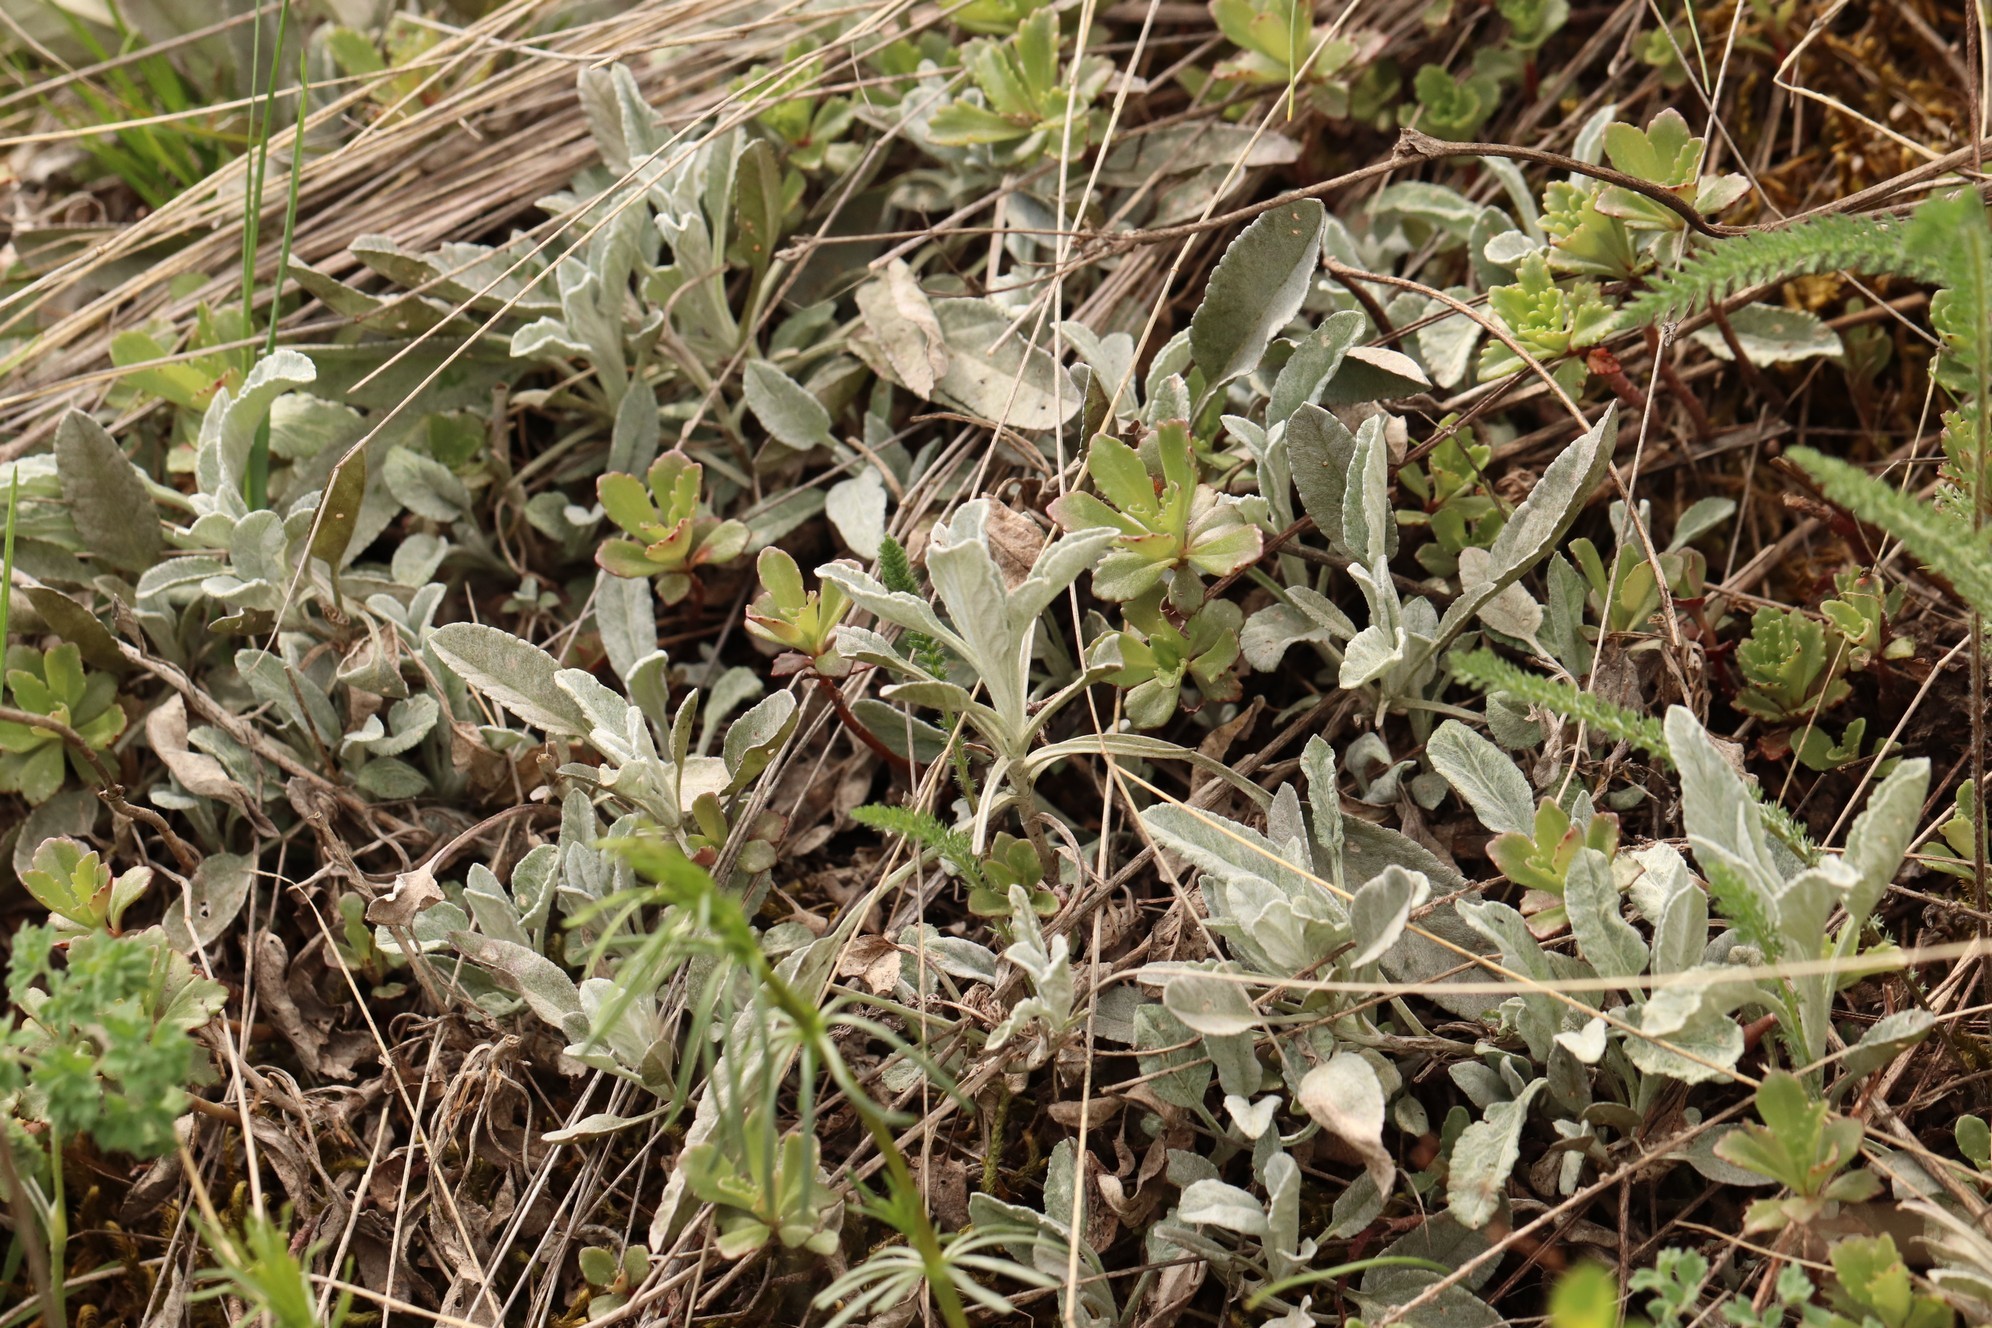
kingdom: Plantae
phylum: Tracheophyta
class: Magnoliopsida
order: Lamiales
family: Plantaginaceae
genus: Veronica
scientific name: Veronica incana
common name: Silver speedwell
